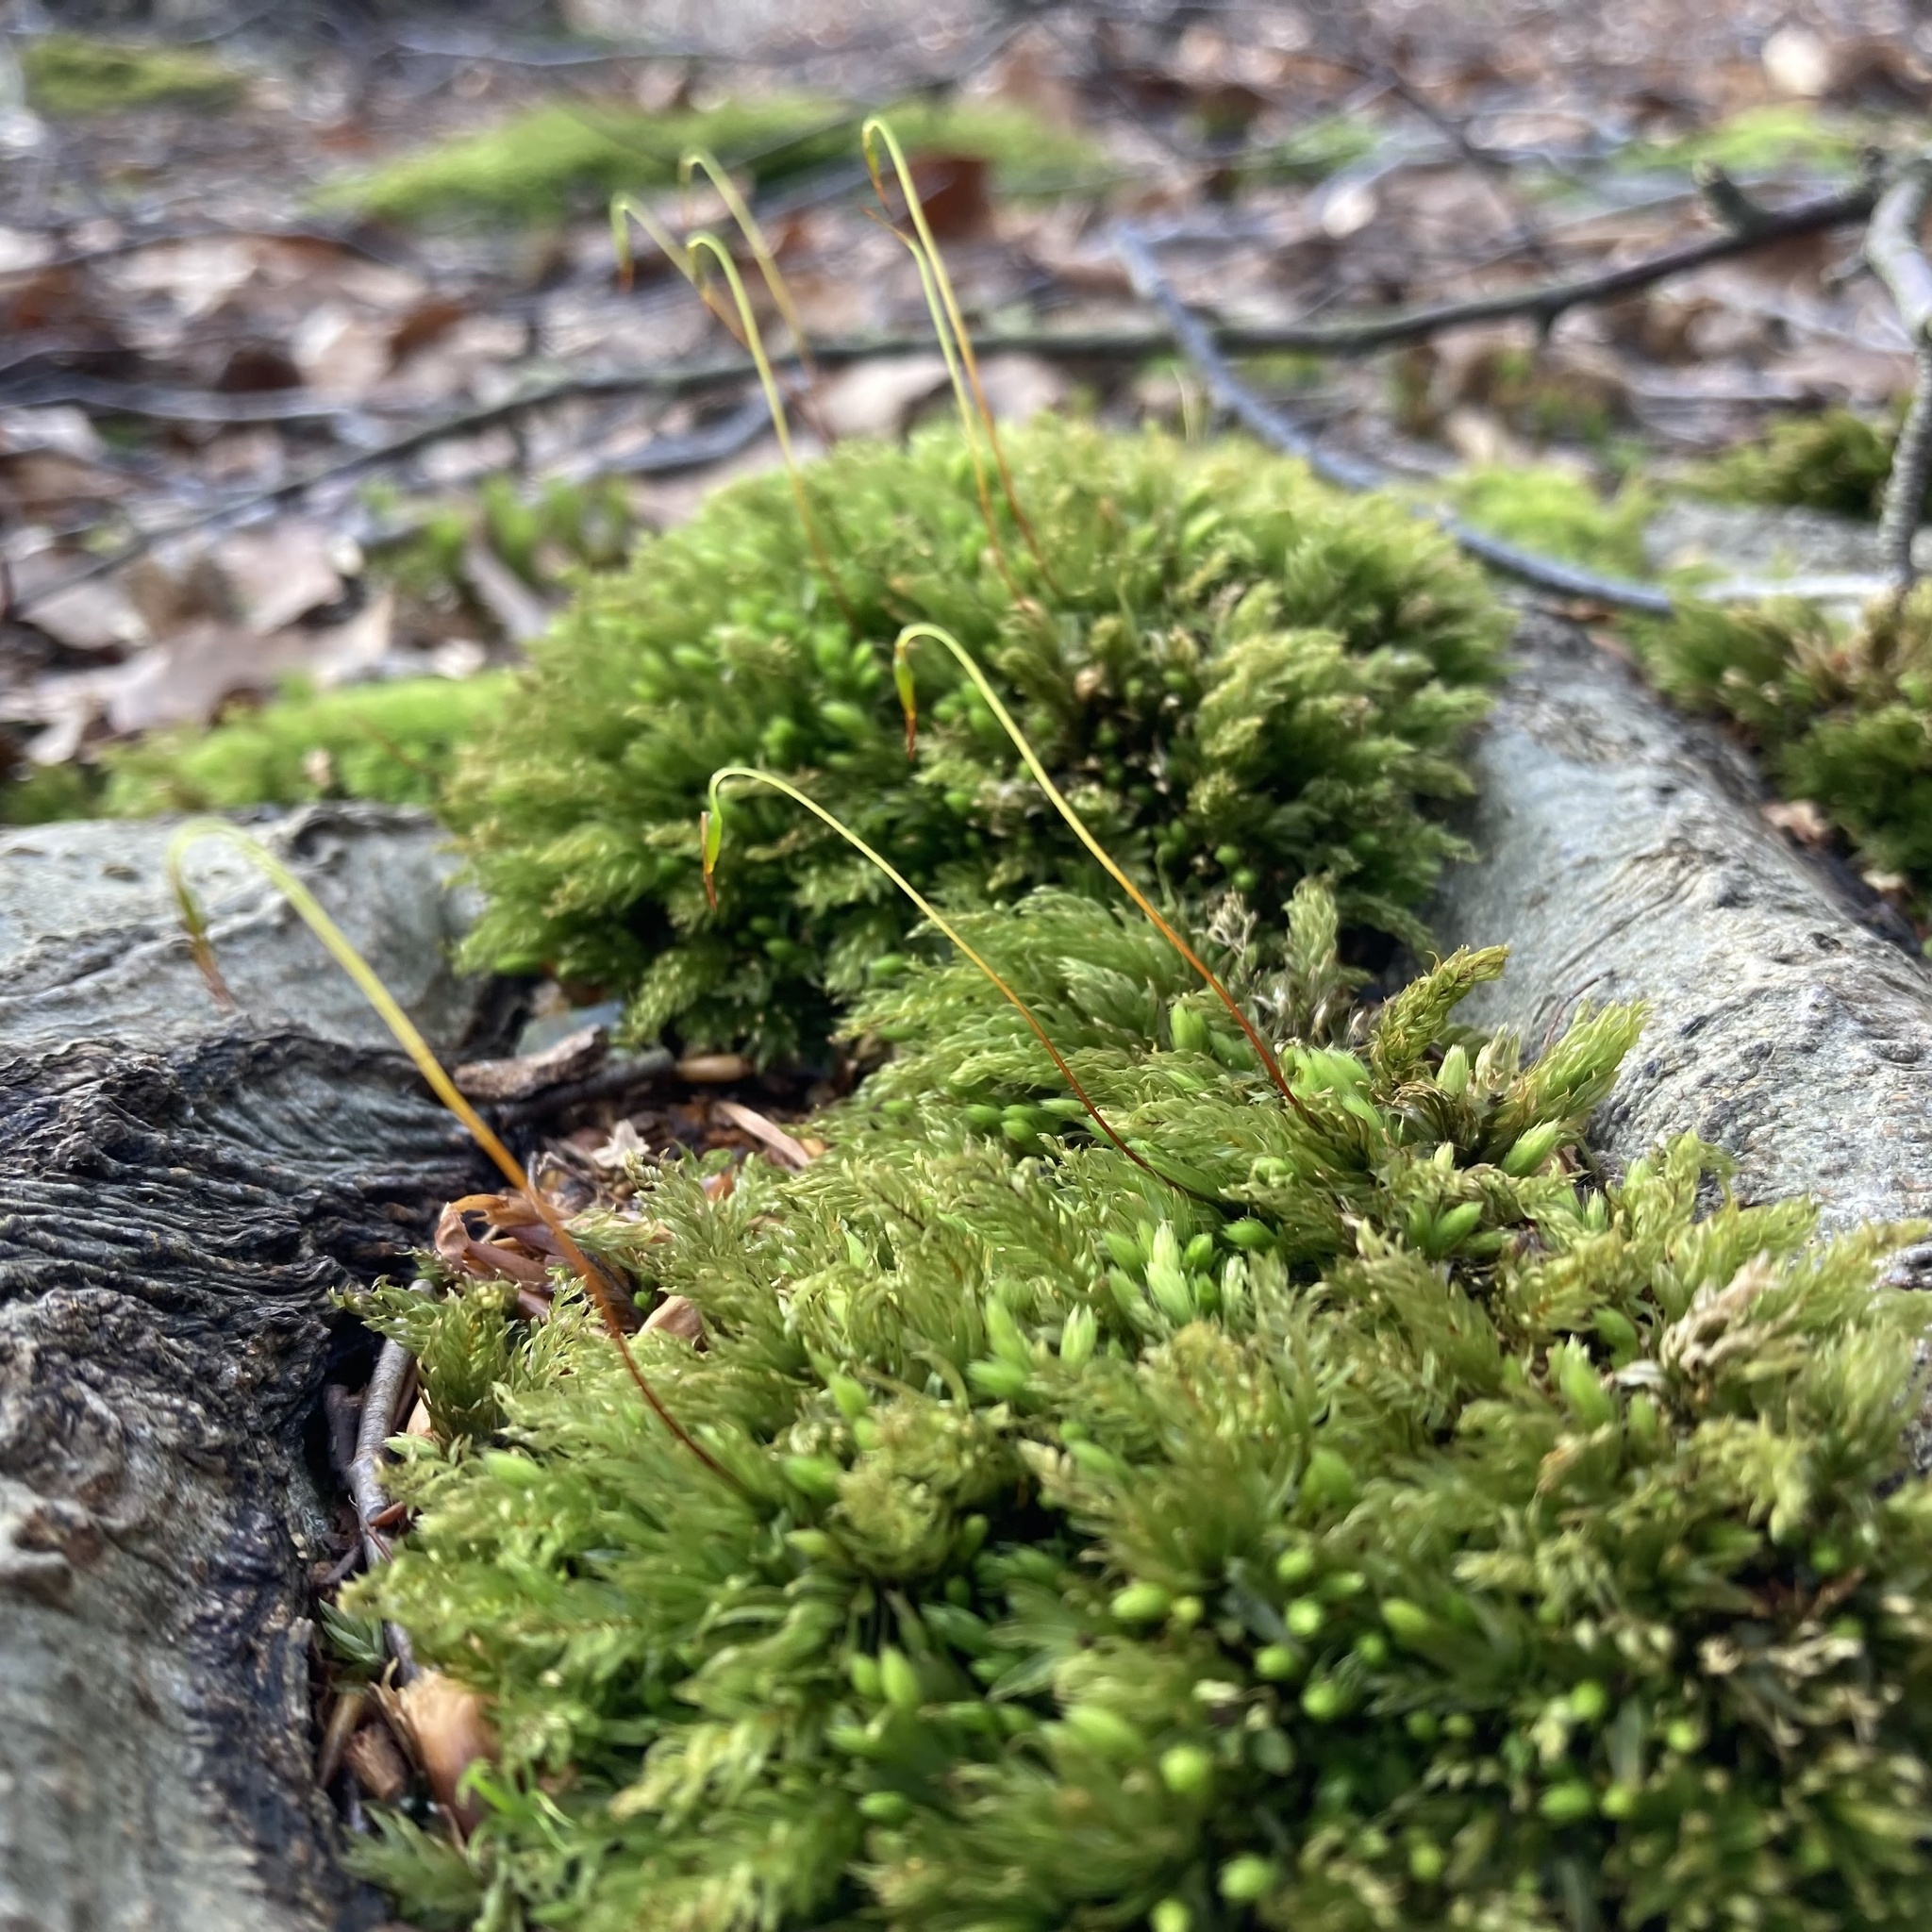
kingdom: Plantae
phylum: Bryophyta
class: Bryopsida
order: Bryales
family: Mniaceae
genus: Mnium
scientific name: Mnium hornum
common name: Swan's-neck leafy moss
